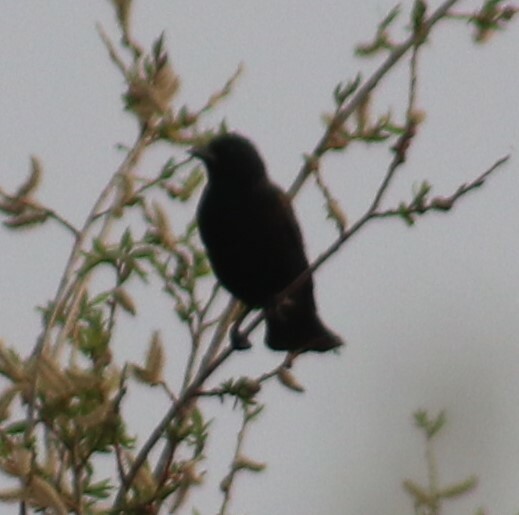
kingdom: Animalia
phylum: Chordata
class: Aves
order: Passeriformes
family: Icteridae
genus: Agelaius
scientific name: Agelaius phoeniceus
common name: Red-winged blackbird
